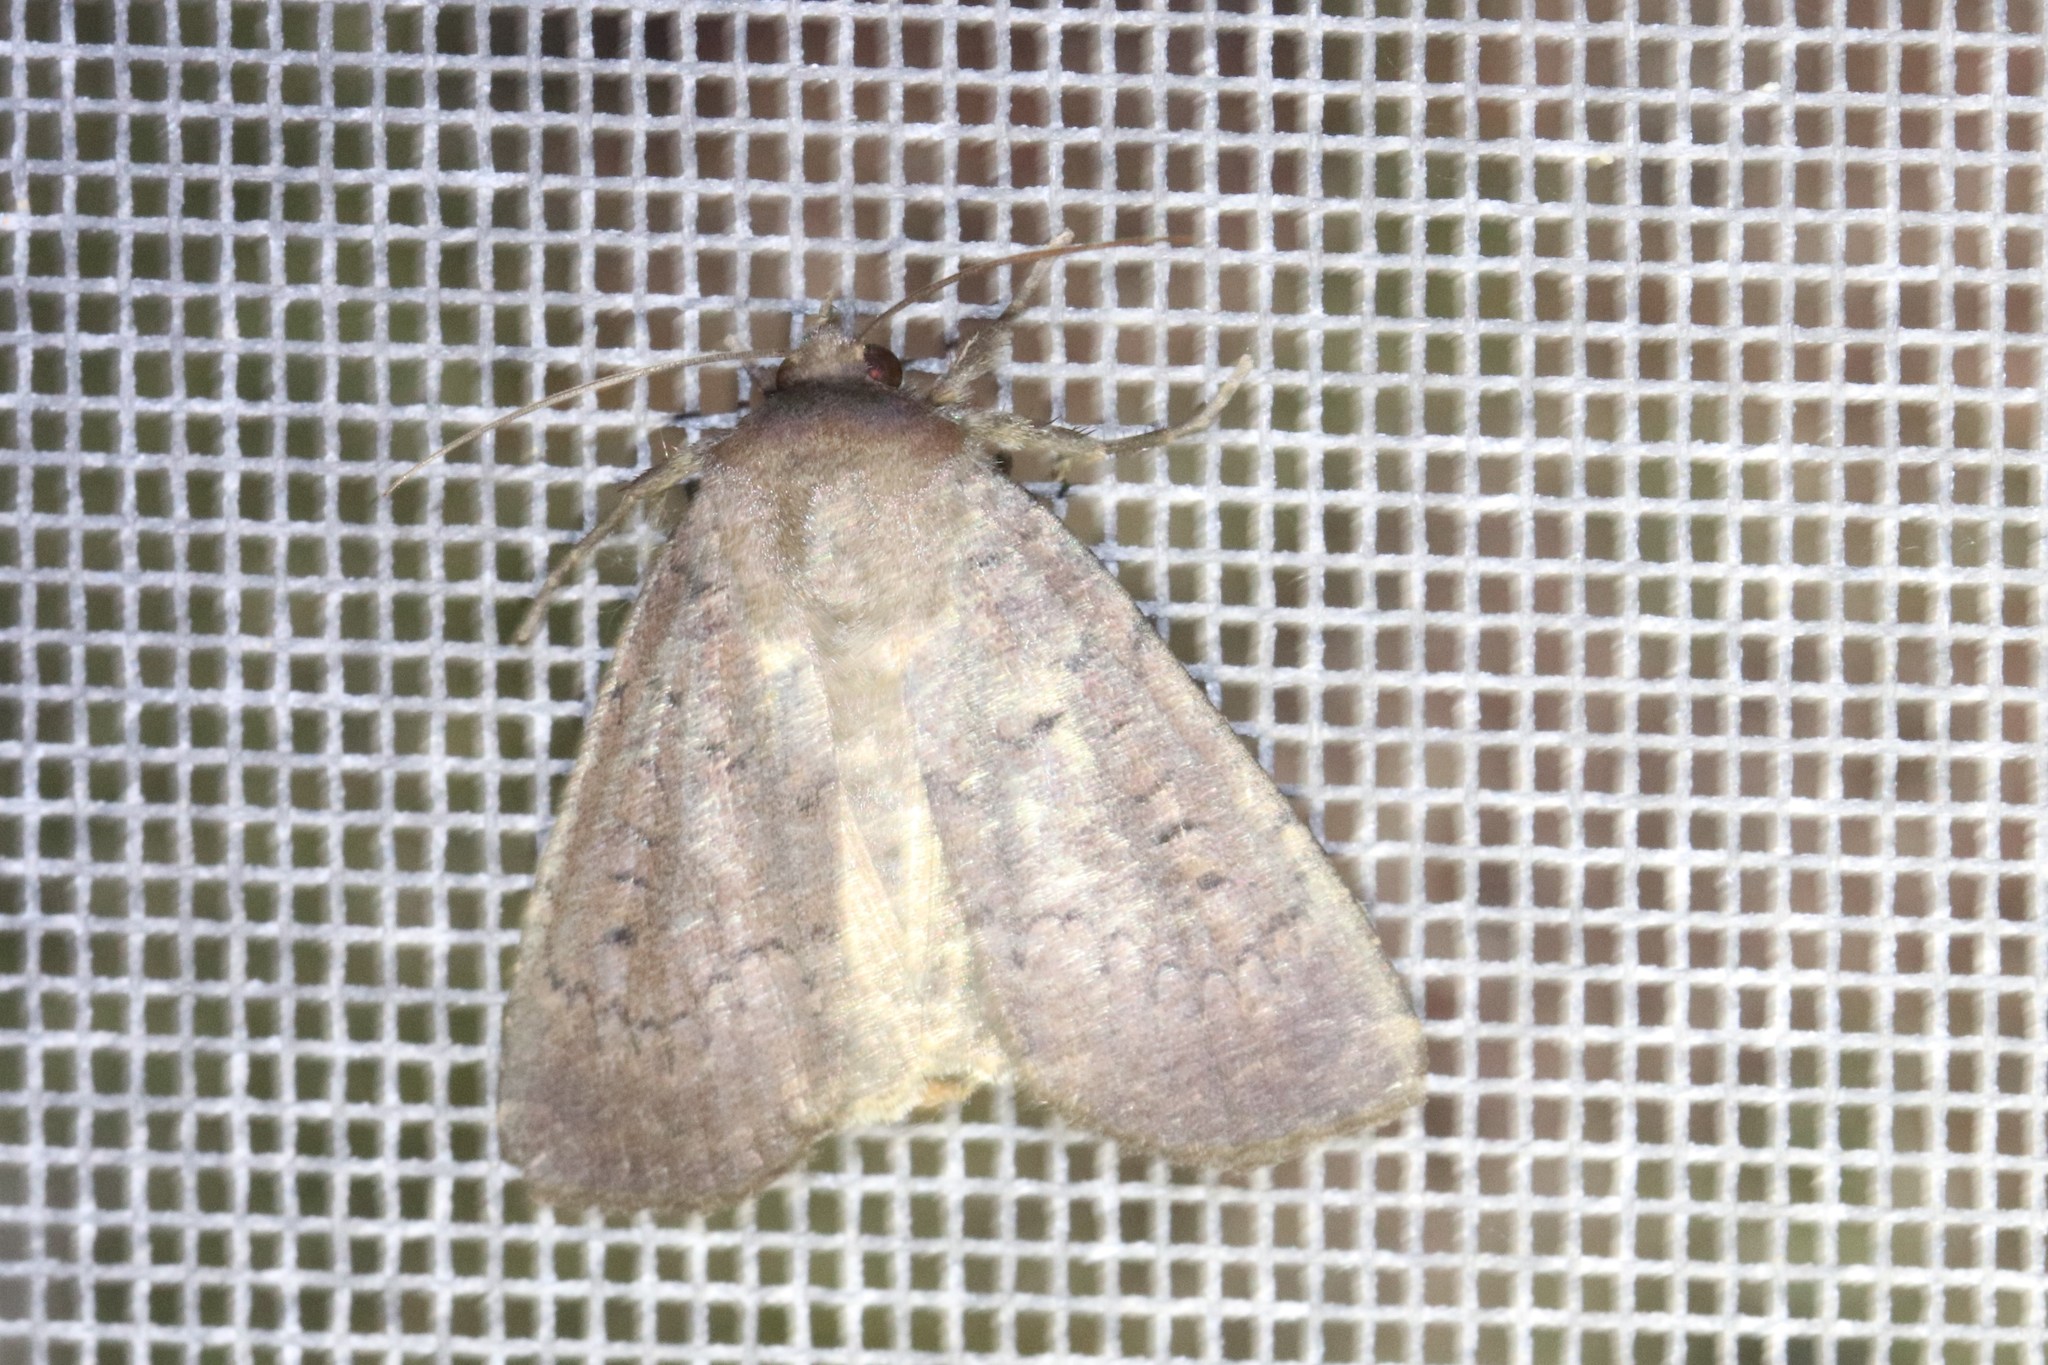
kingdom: Animalia
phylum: Arthropoda
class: Insecta
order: Lepidoptera
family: Noctuidae
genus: Graphiphora
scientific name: Graphiphora augur
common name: Double dart
